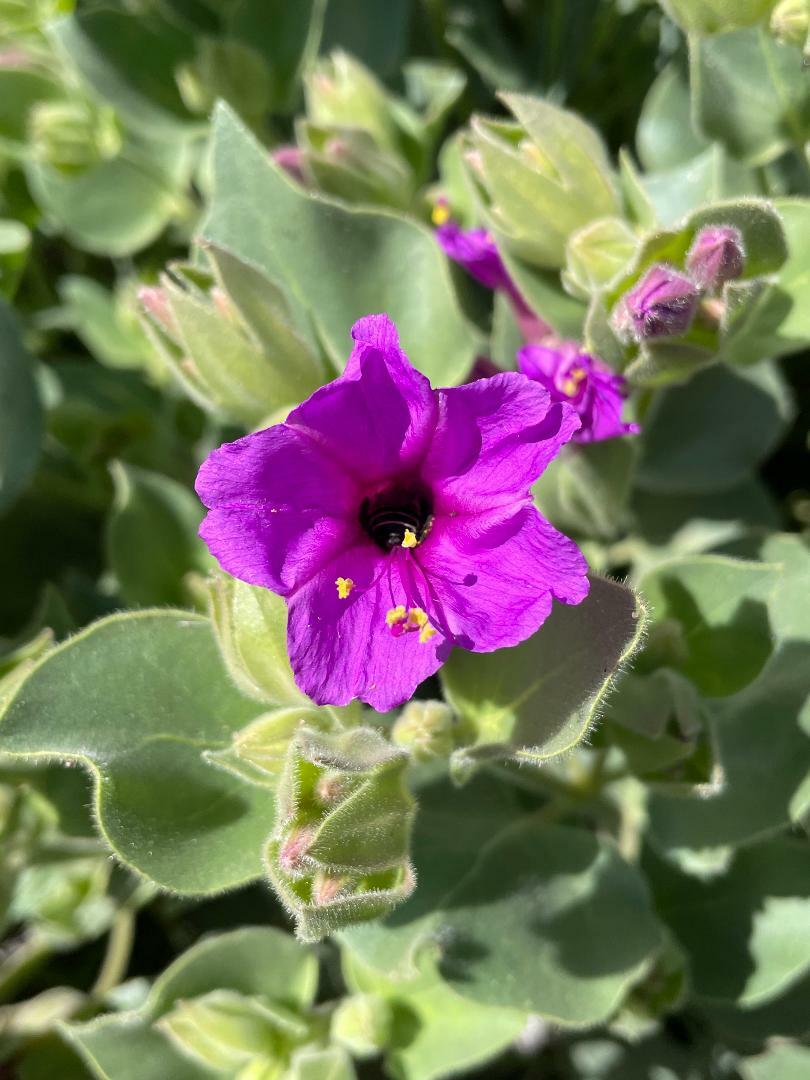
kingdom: Plantae
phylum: Tracheophyta
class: Magnoliopsida
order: Caryophyllales
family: Nyctaginaceae
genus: Mirabilis
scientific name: Mirabilis multiflora
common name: Froebel's four-o'clock
